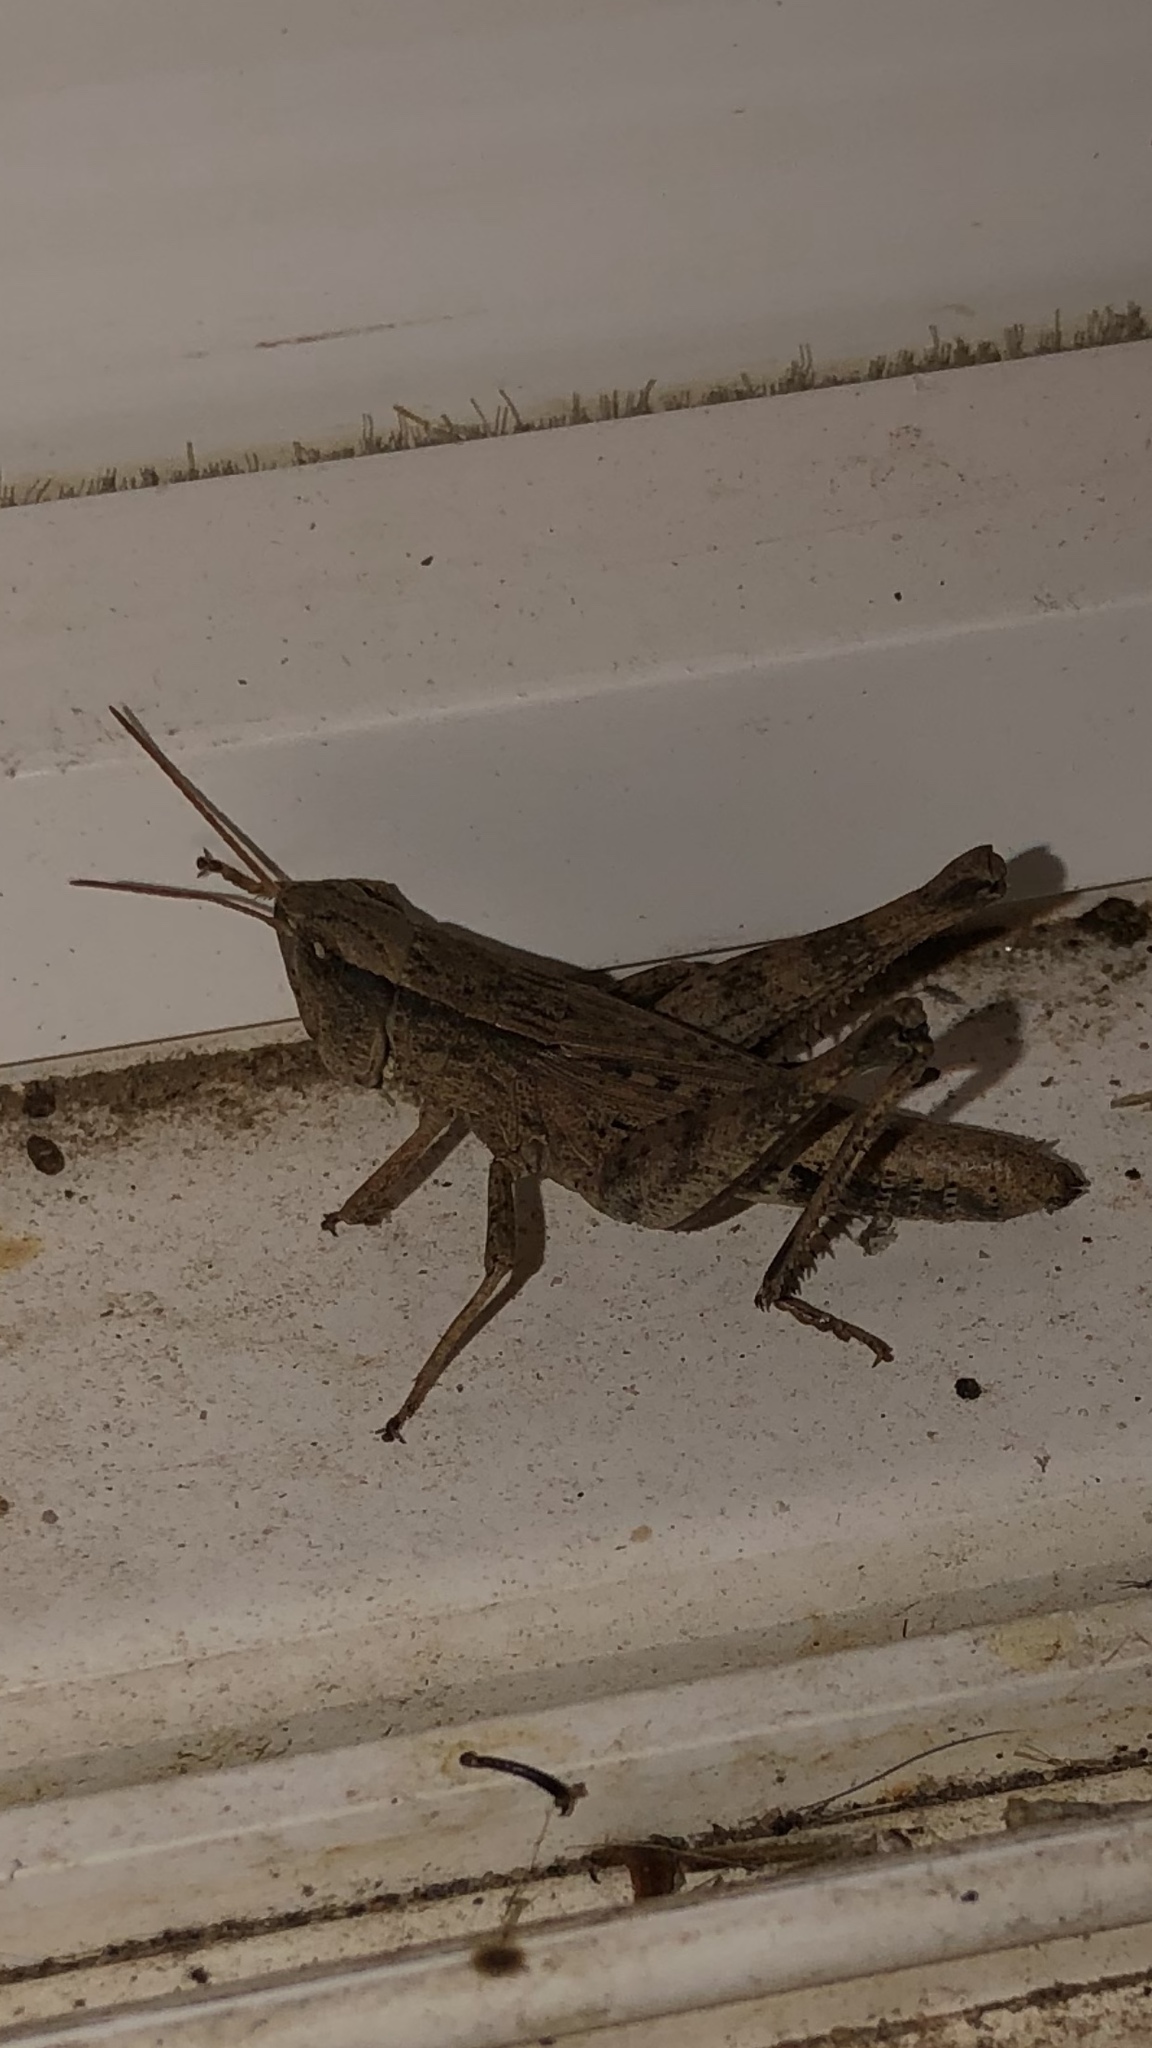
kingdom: Animalia
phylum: Arthropoda
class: Insecta
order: Orthoptera
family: Acrididae
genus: Dichromorpha
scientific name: Dichromorpha viridis
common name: Short-winged green grasshopper
